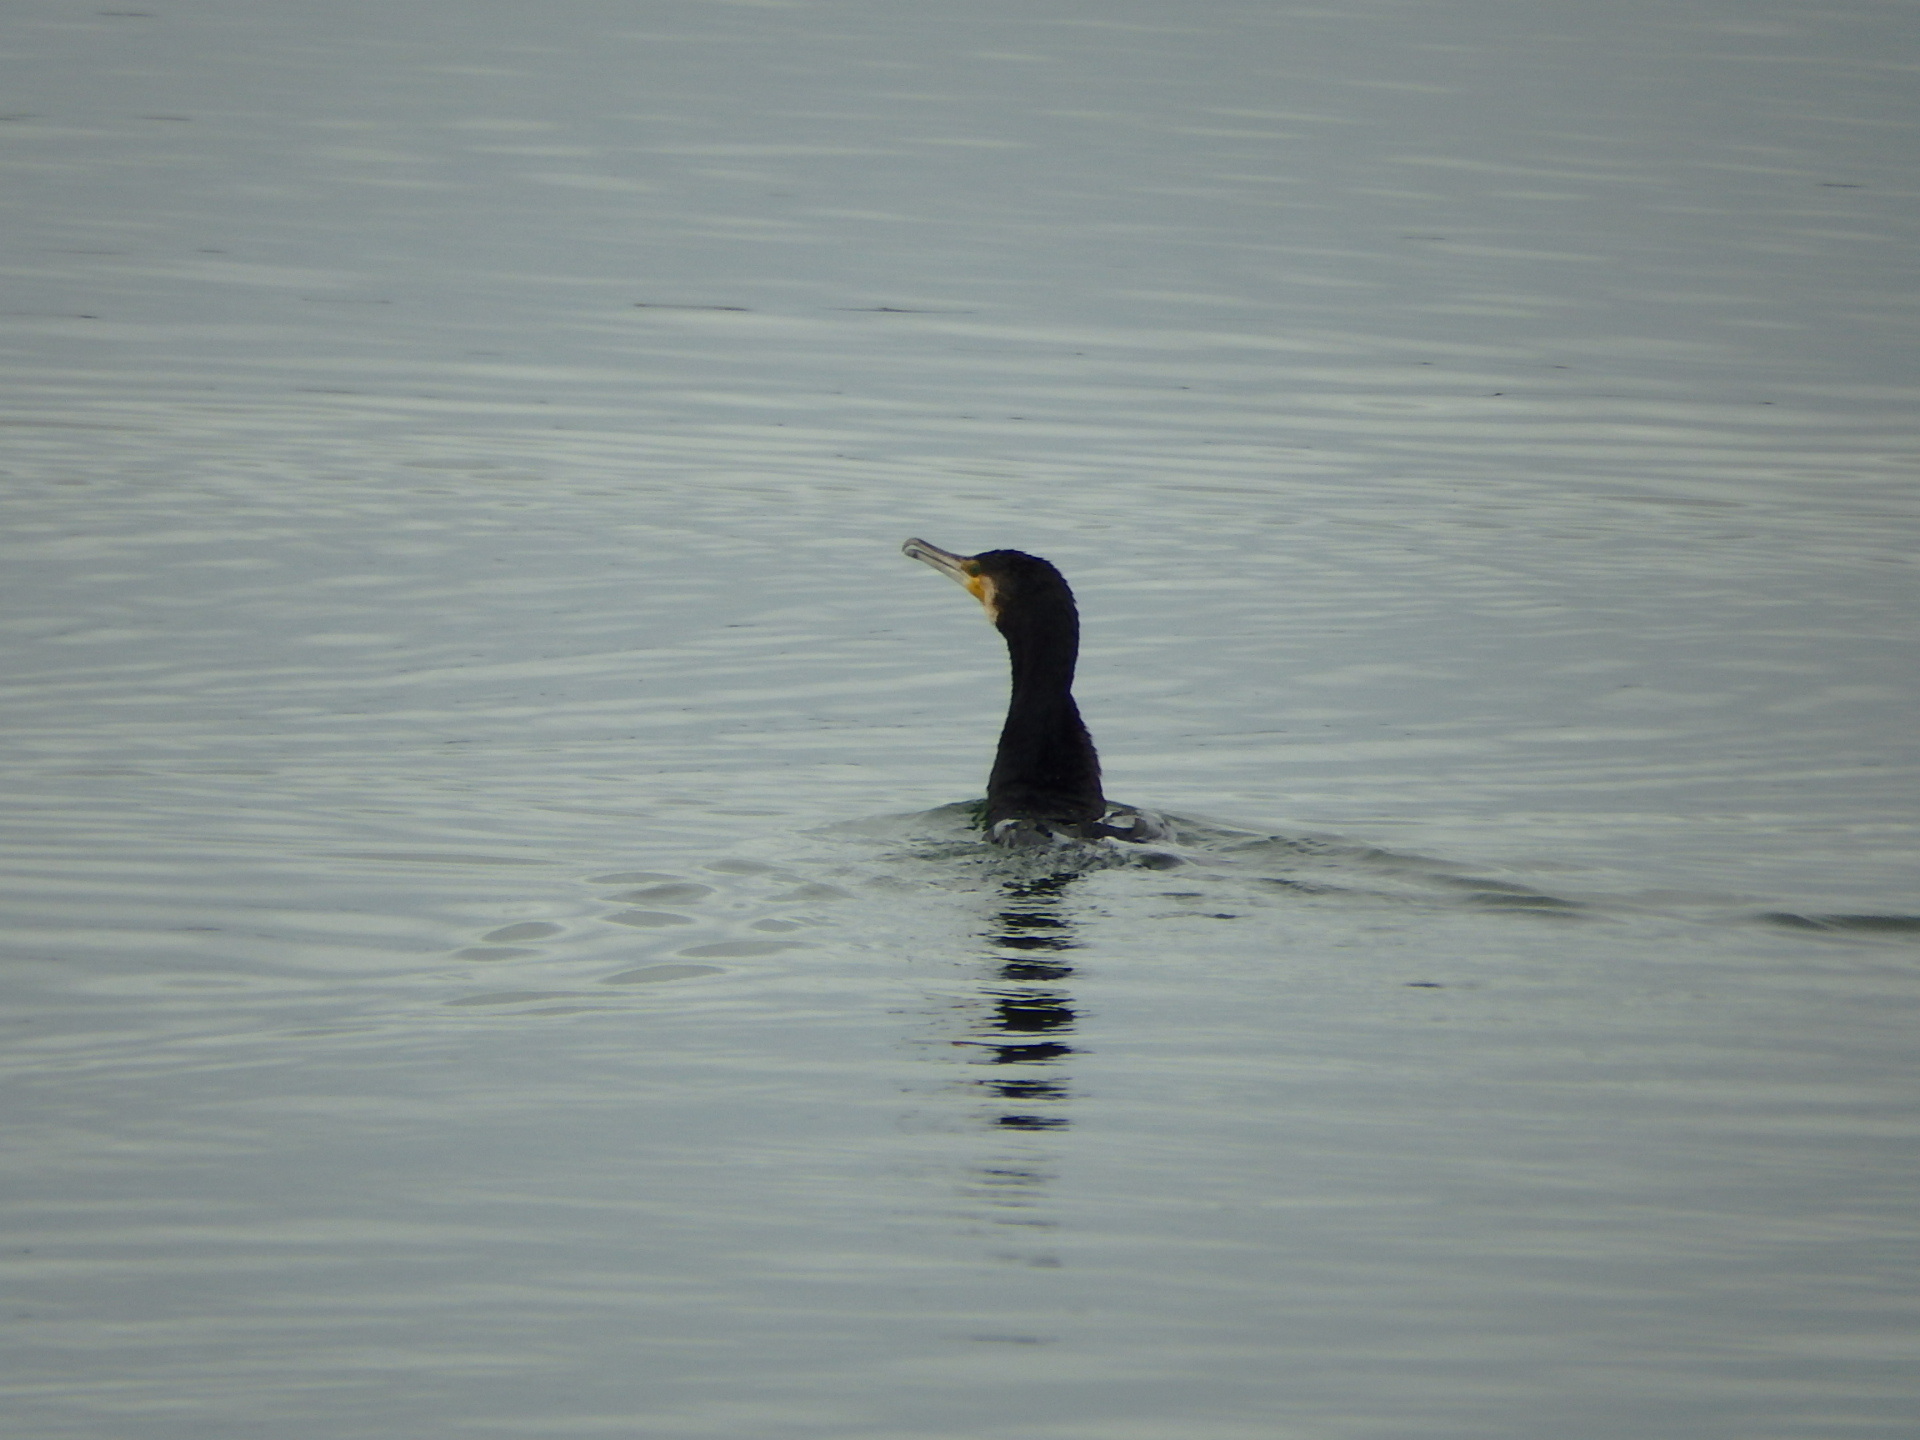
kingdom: Animalia
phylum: Chordata
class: Aves
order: Suliformes
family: Phalacrocoracidae
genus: Phalacrocorax
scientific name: Phalacrocorax carbo
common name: Great cormorant
